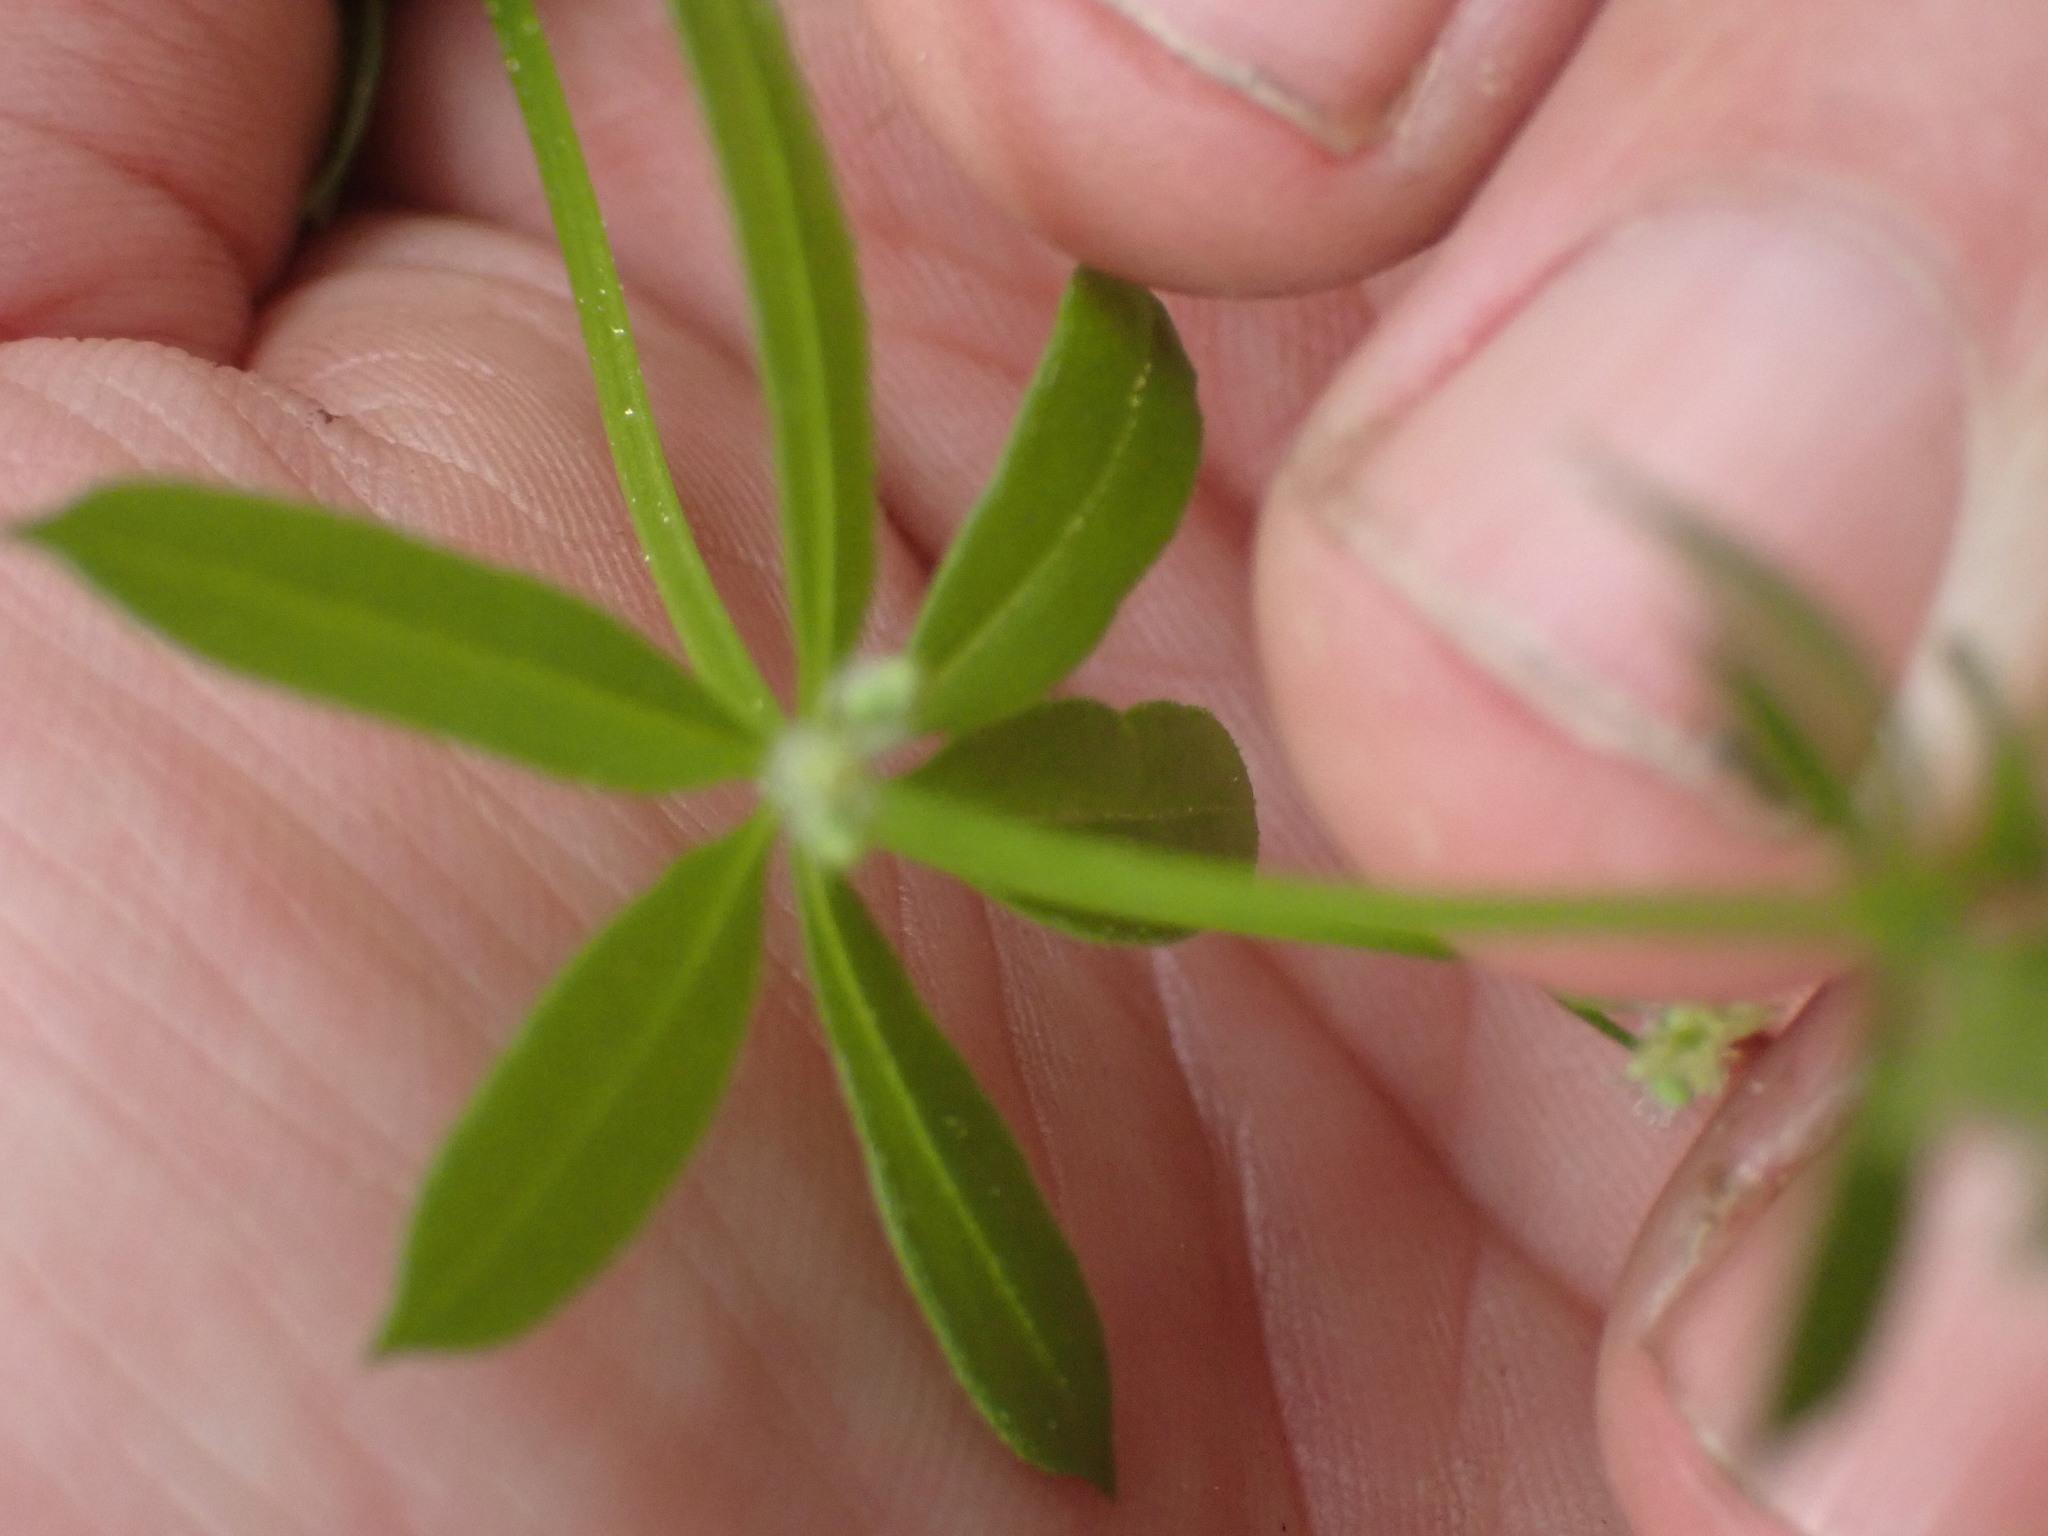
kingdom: Plantae
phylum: Tracheophyta
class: Magnoliopsida
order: Gentianales
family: Rubiaceae
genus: Galium
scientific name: Galium triflorum
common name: Fragrant bedstraw
